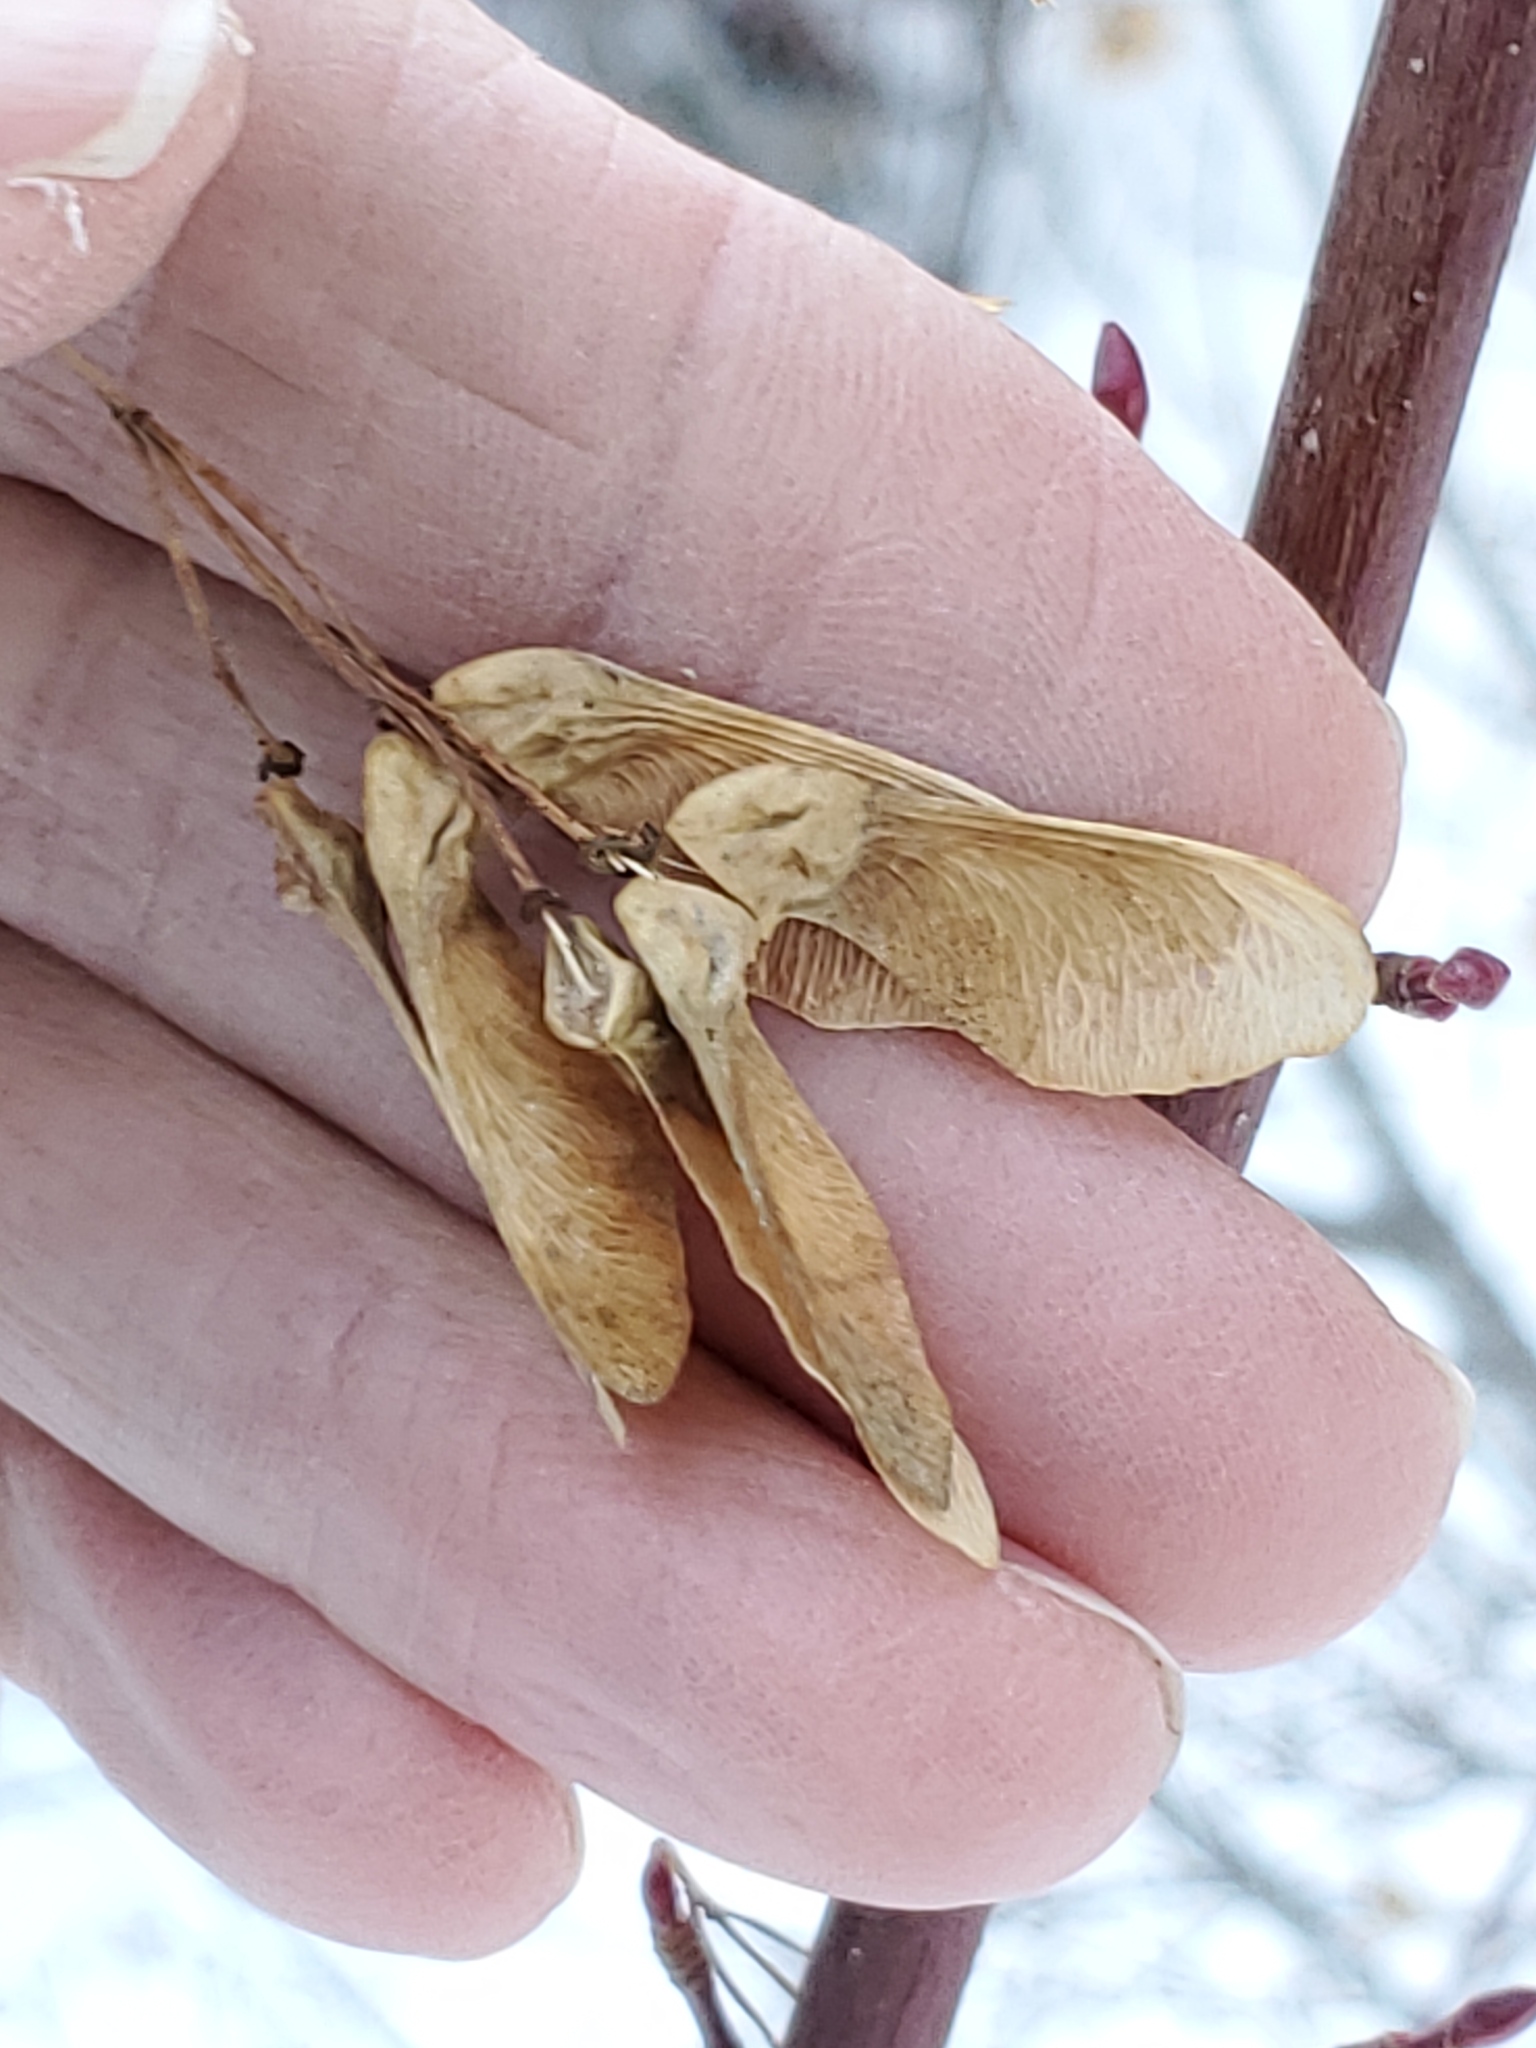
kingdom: Plantae
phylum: Tracheophyta
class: Magnoliopsida
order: Sapindales
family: Sapindaceae
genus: Acer
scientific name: Acer glabrum
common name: Rocky mountain maple
